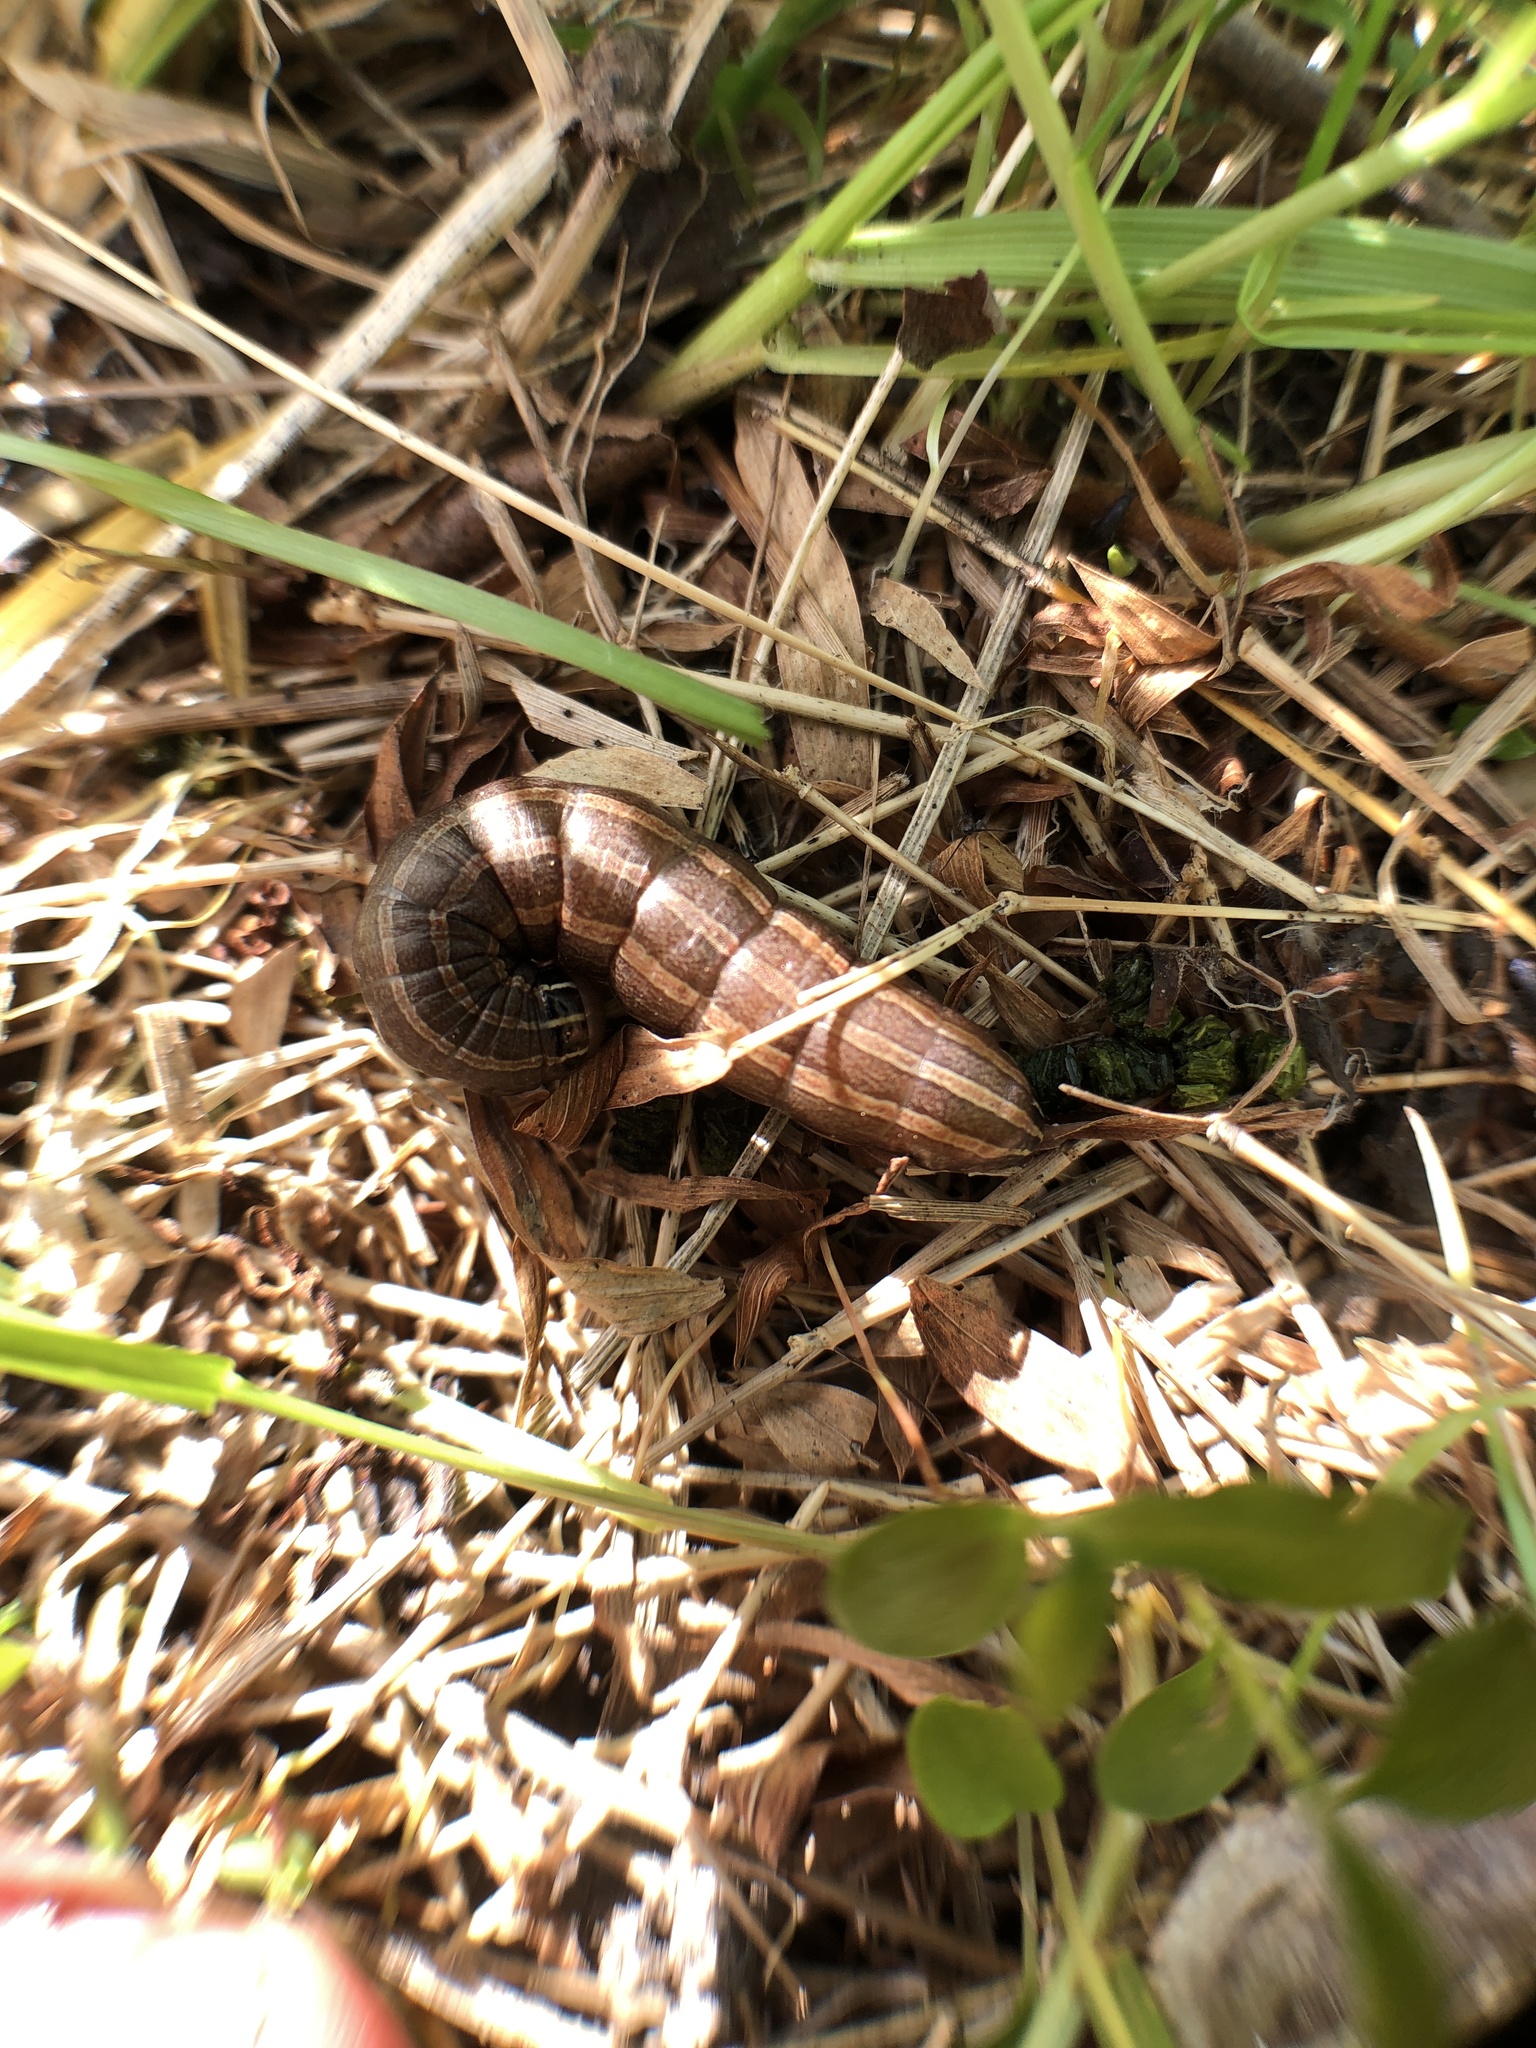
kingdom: Animalia
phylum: Arthropoda
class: Insecta
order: Lepidoptera
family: Noctuidae
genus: Nephelodes
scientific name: Nephelodes minians
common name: Bronzed cutworm
